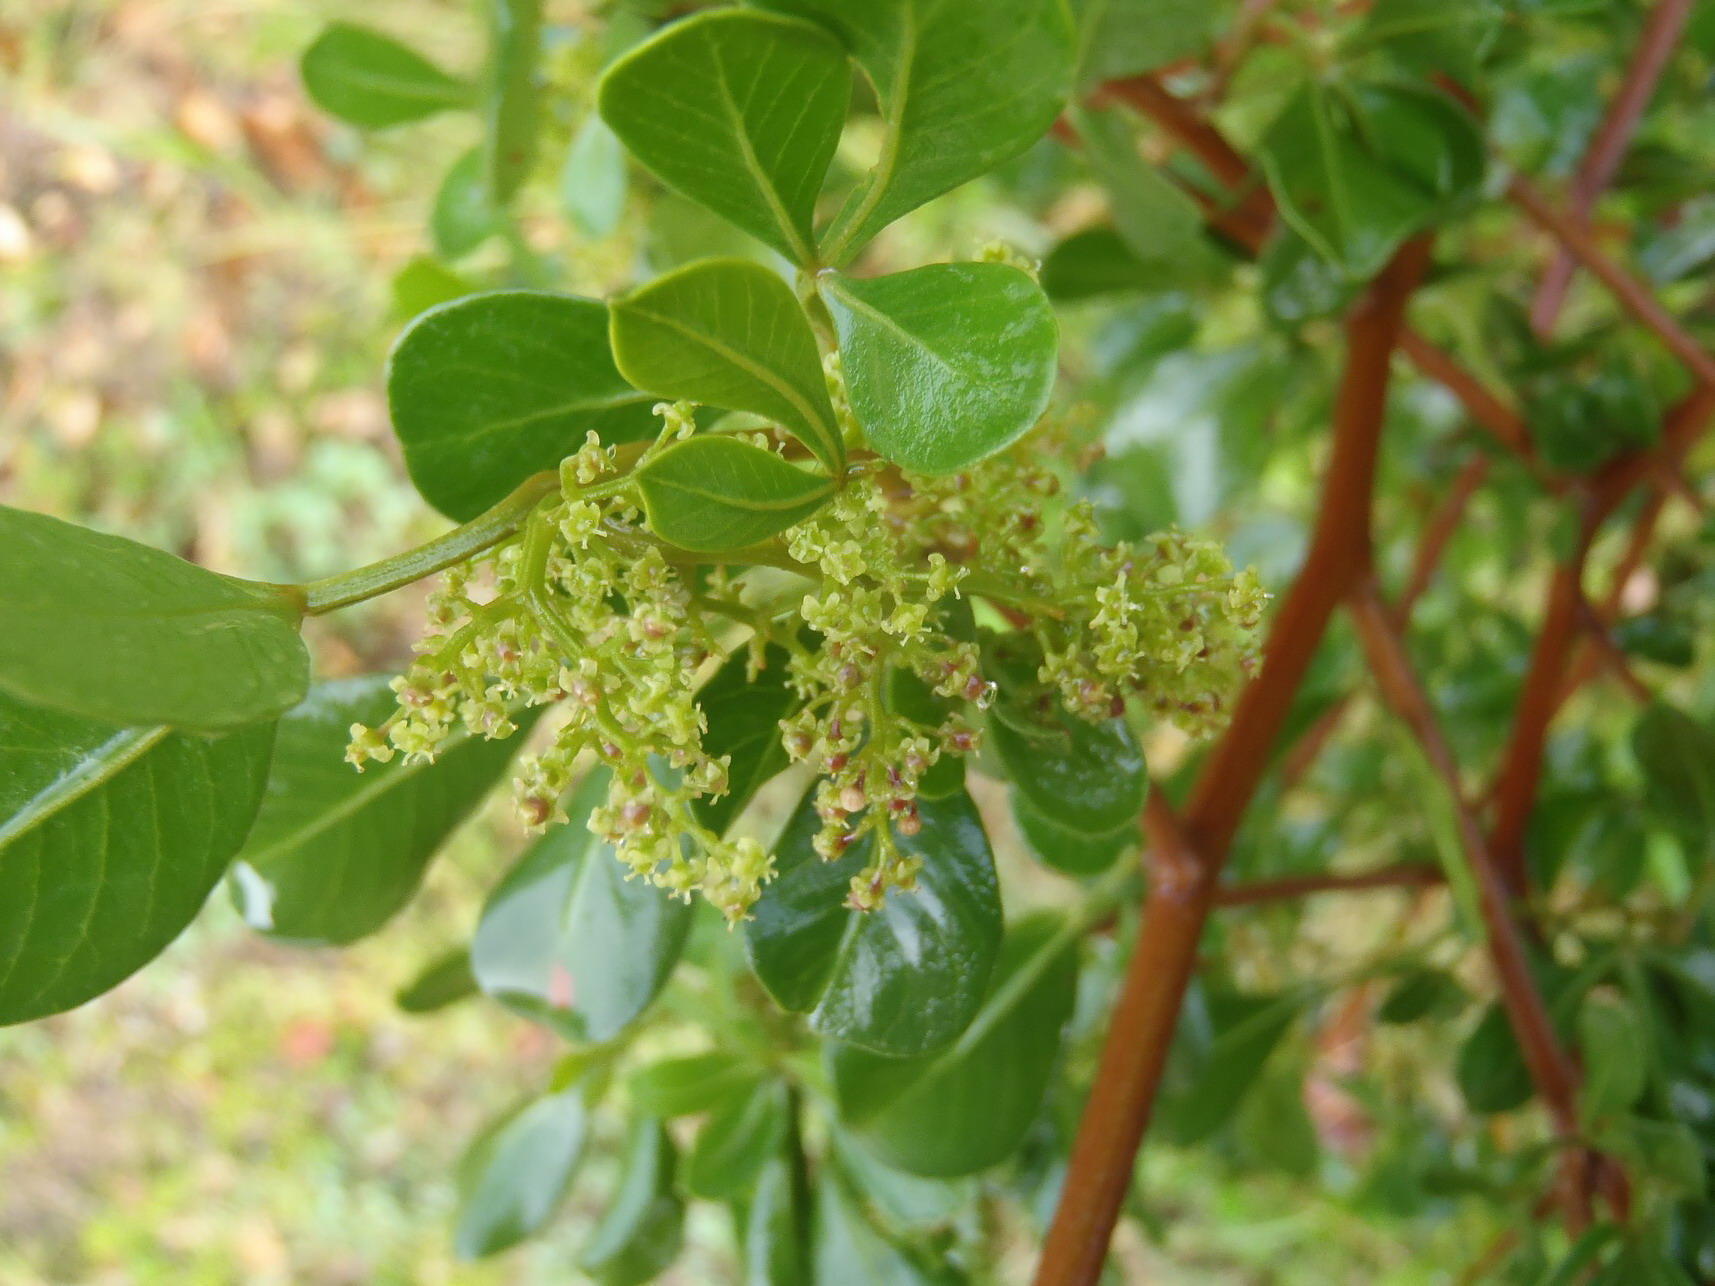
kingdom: Plantae
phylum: Tracheophyta
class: Magnoliopsida
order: Sapindales
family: Anacardiaceae
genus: Searsia
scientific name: Searsia glauca
